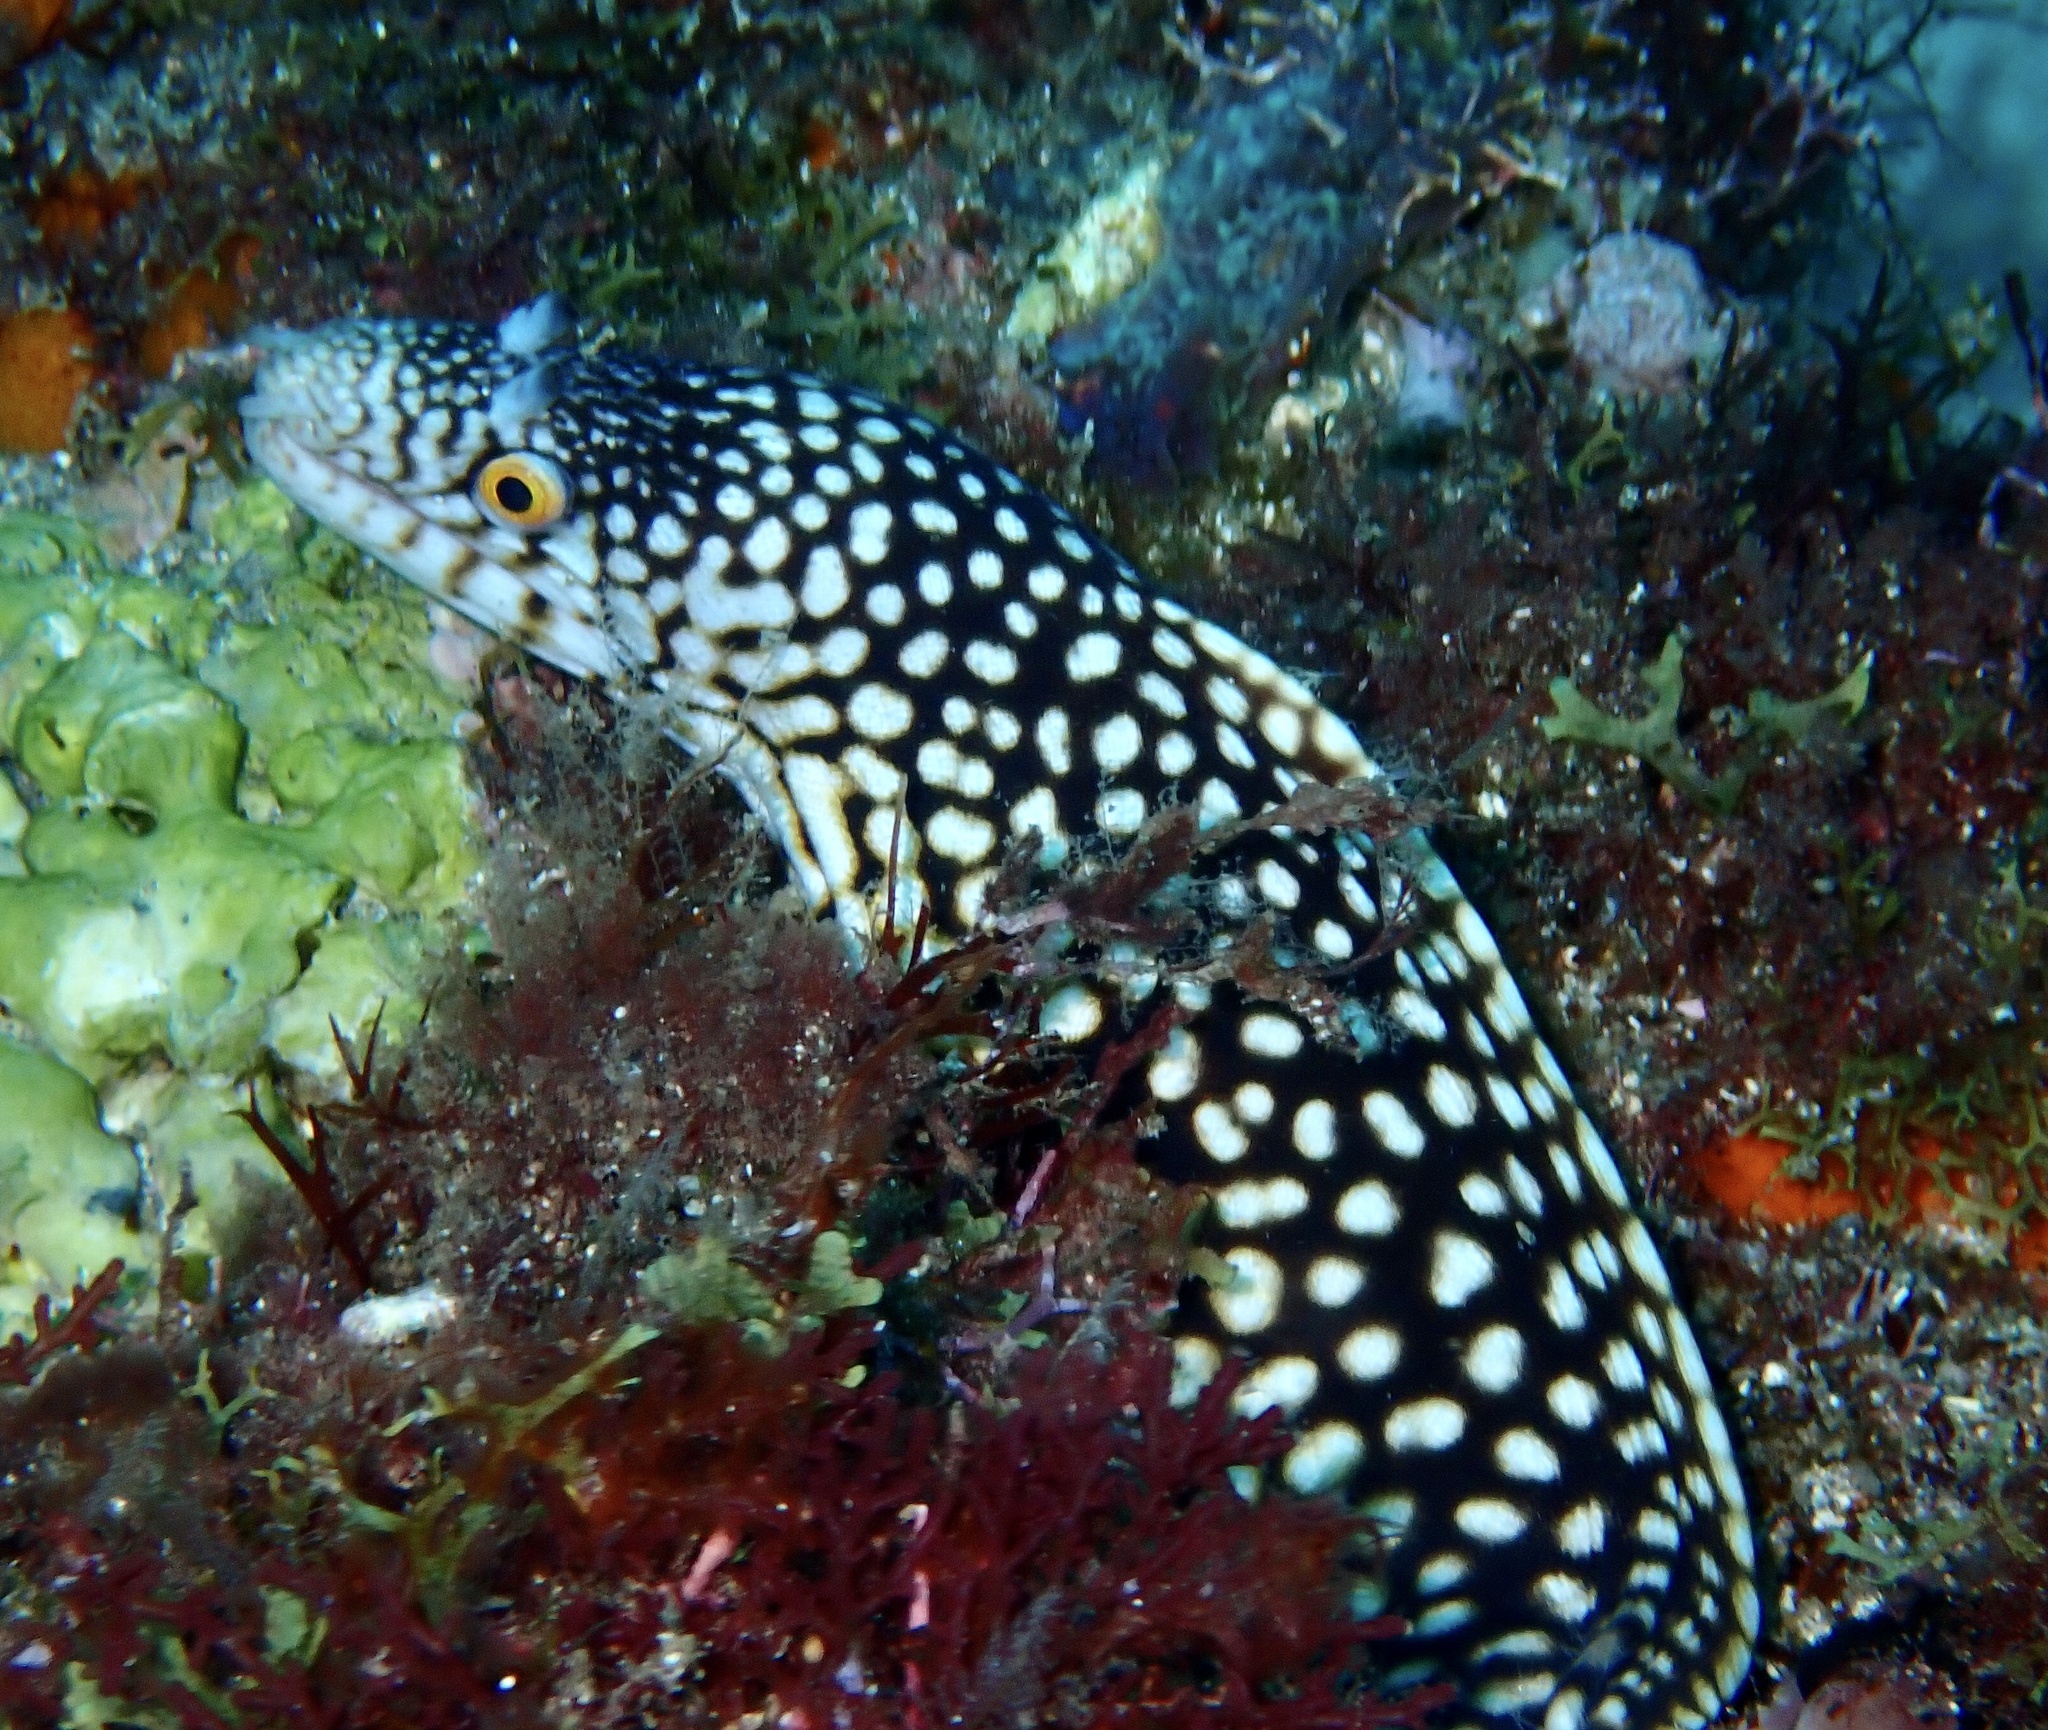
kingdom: Animalia
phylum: Chordata
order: Anguilliformes
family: Muraenidae
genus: Muraena
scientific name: Muraena melanotis
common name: Honeycomb moray
